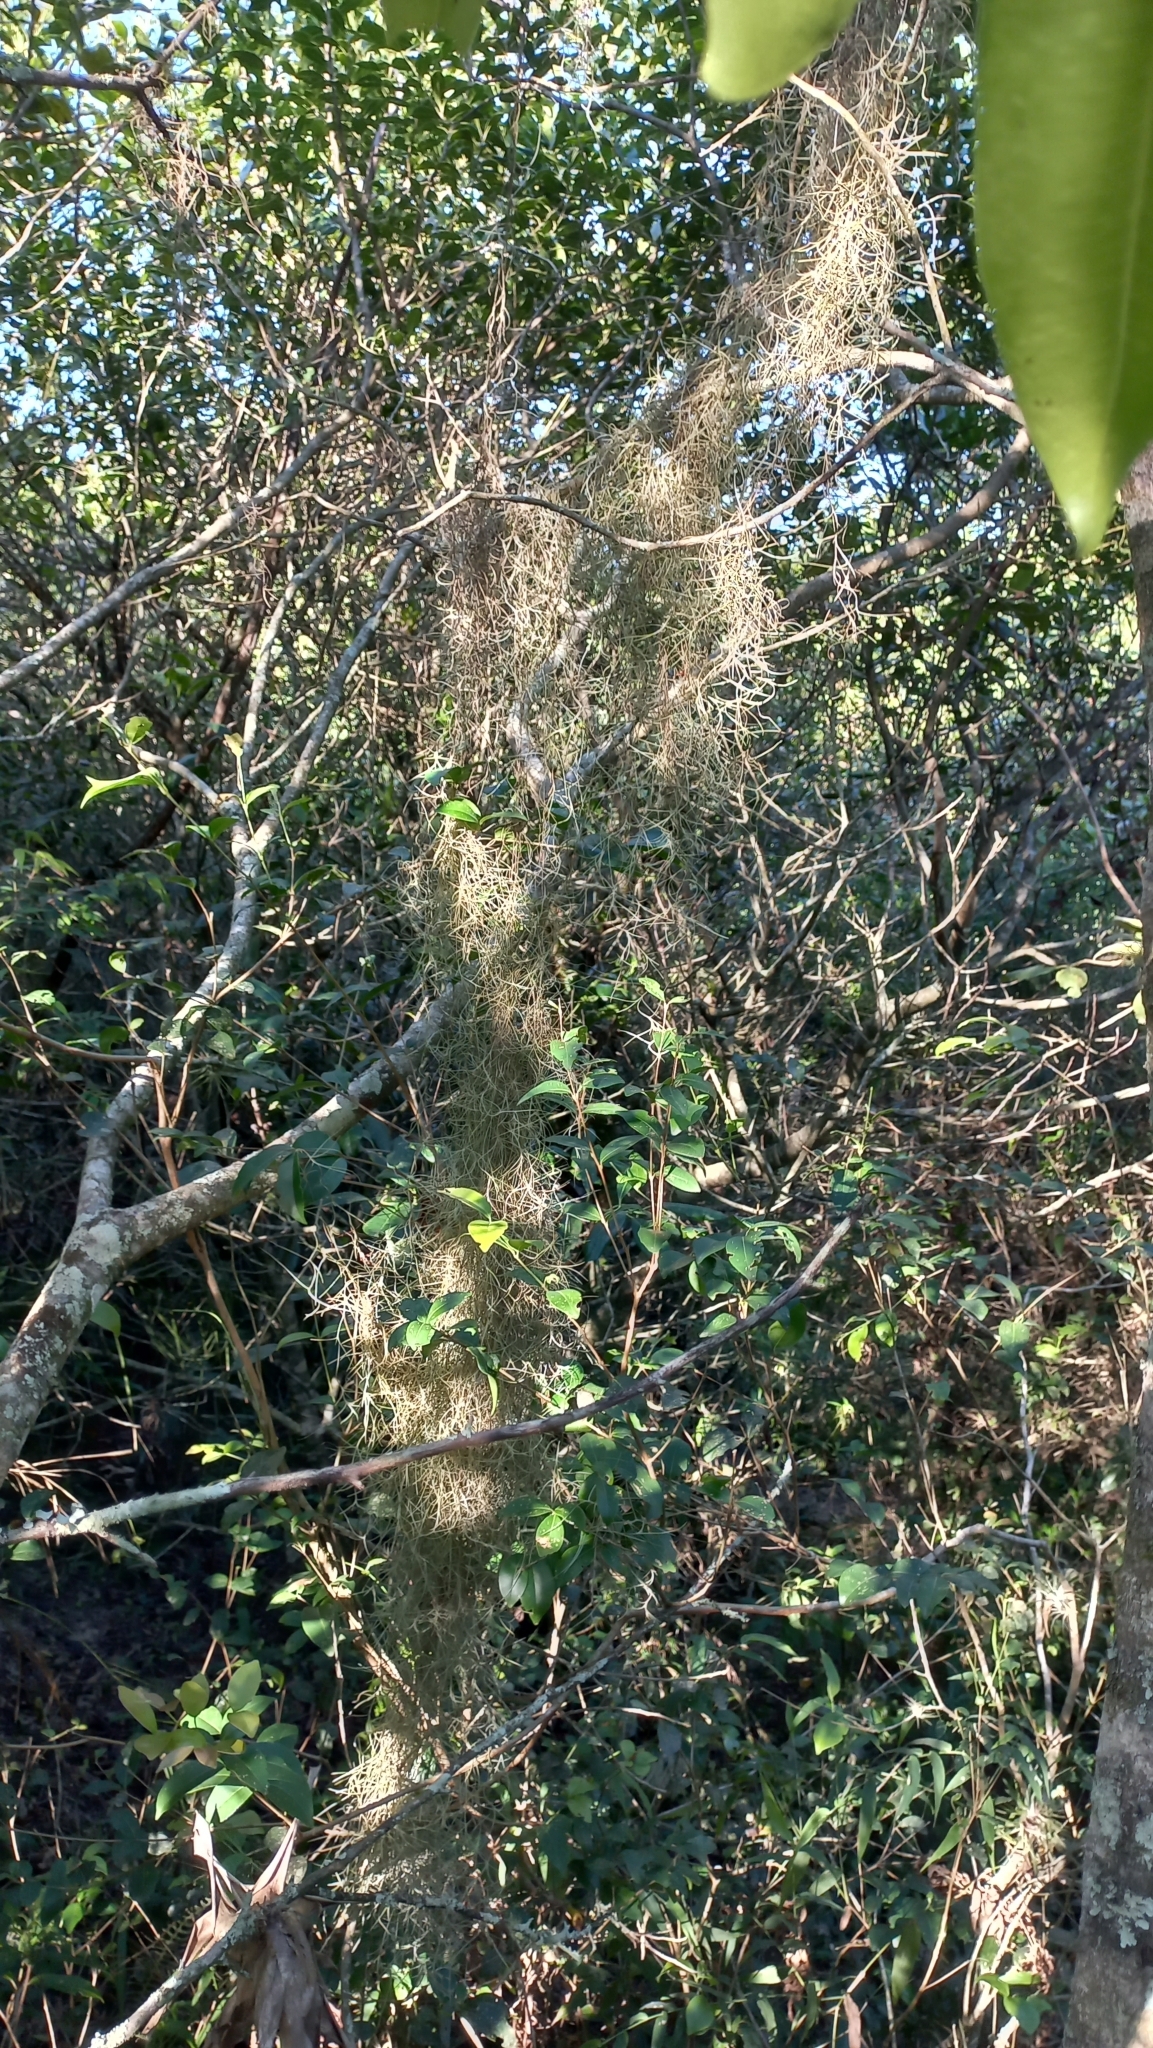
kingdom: Plantae
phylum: Tracheophyta
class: Liliopsida
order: Poales
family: Bromeliaceae
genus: Tillandsia
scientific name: Tillandsia usneoides
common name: Spanish moss
